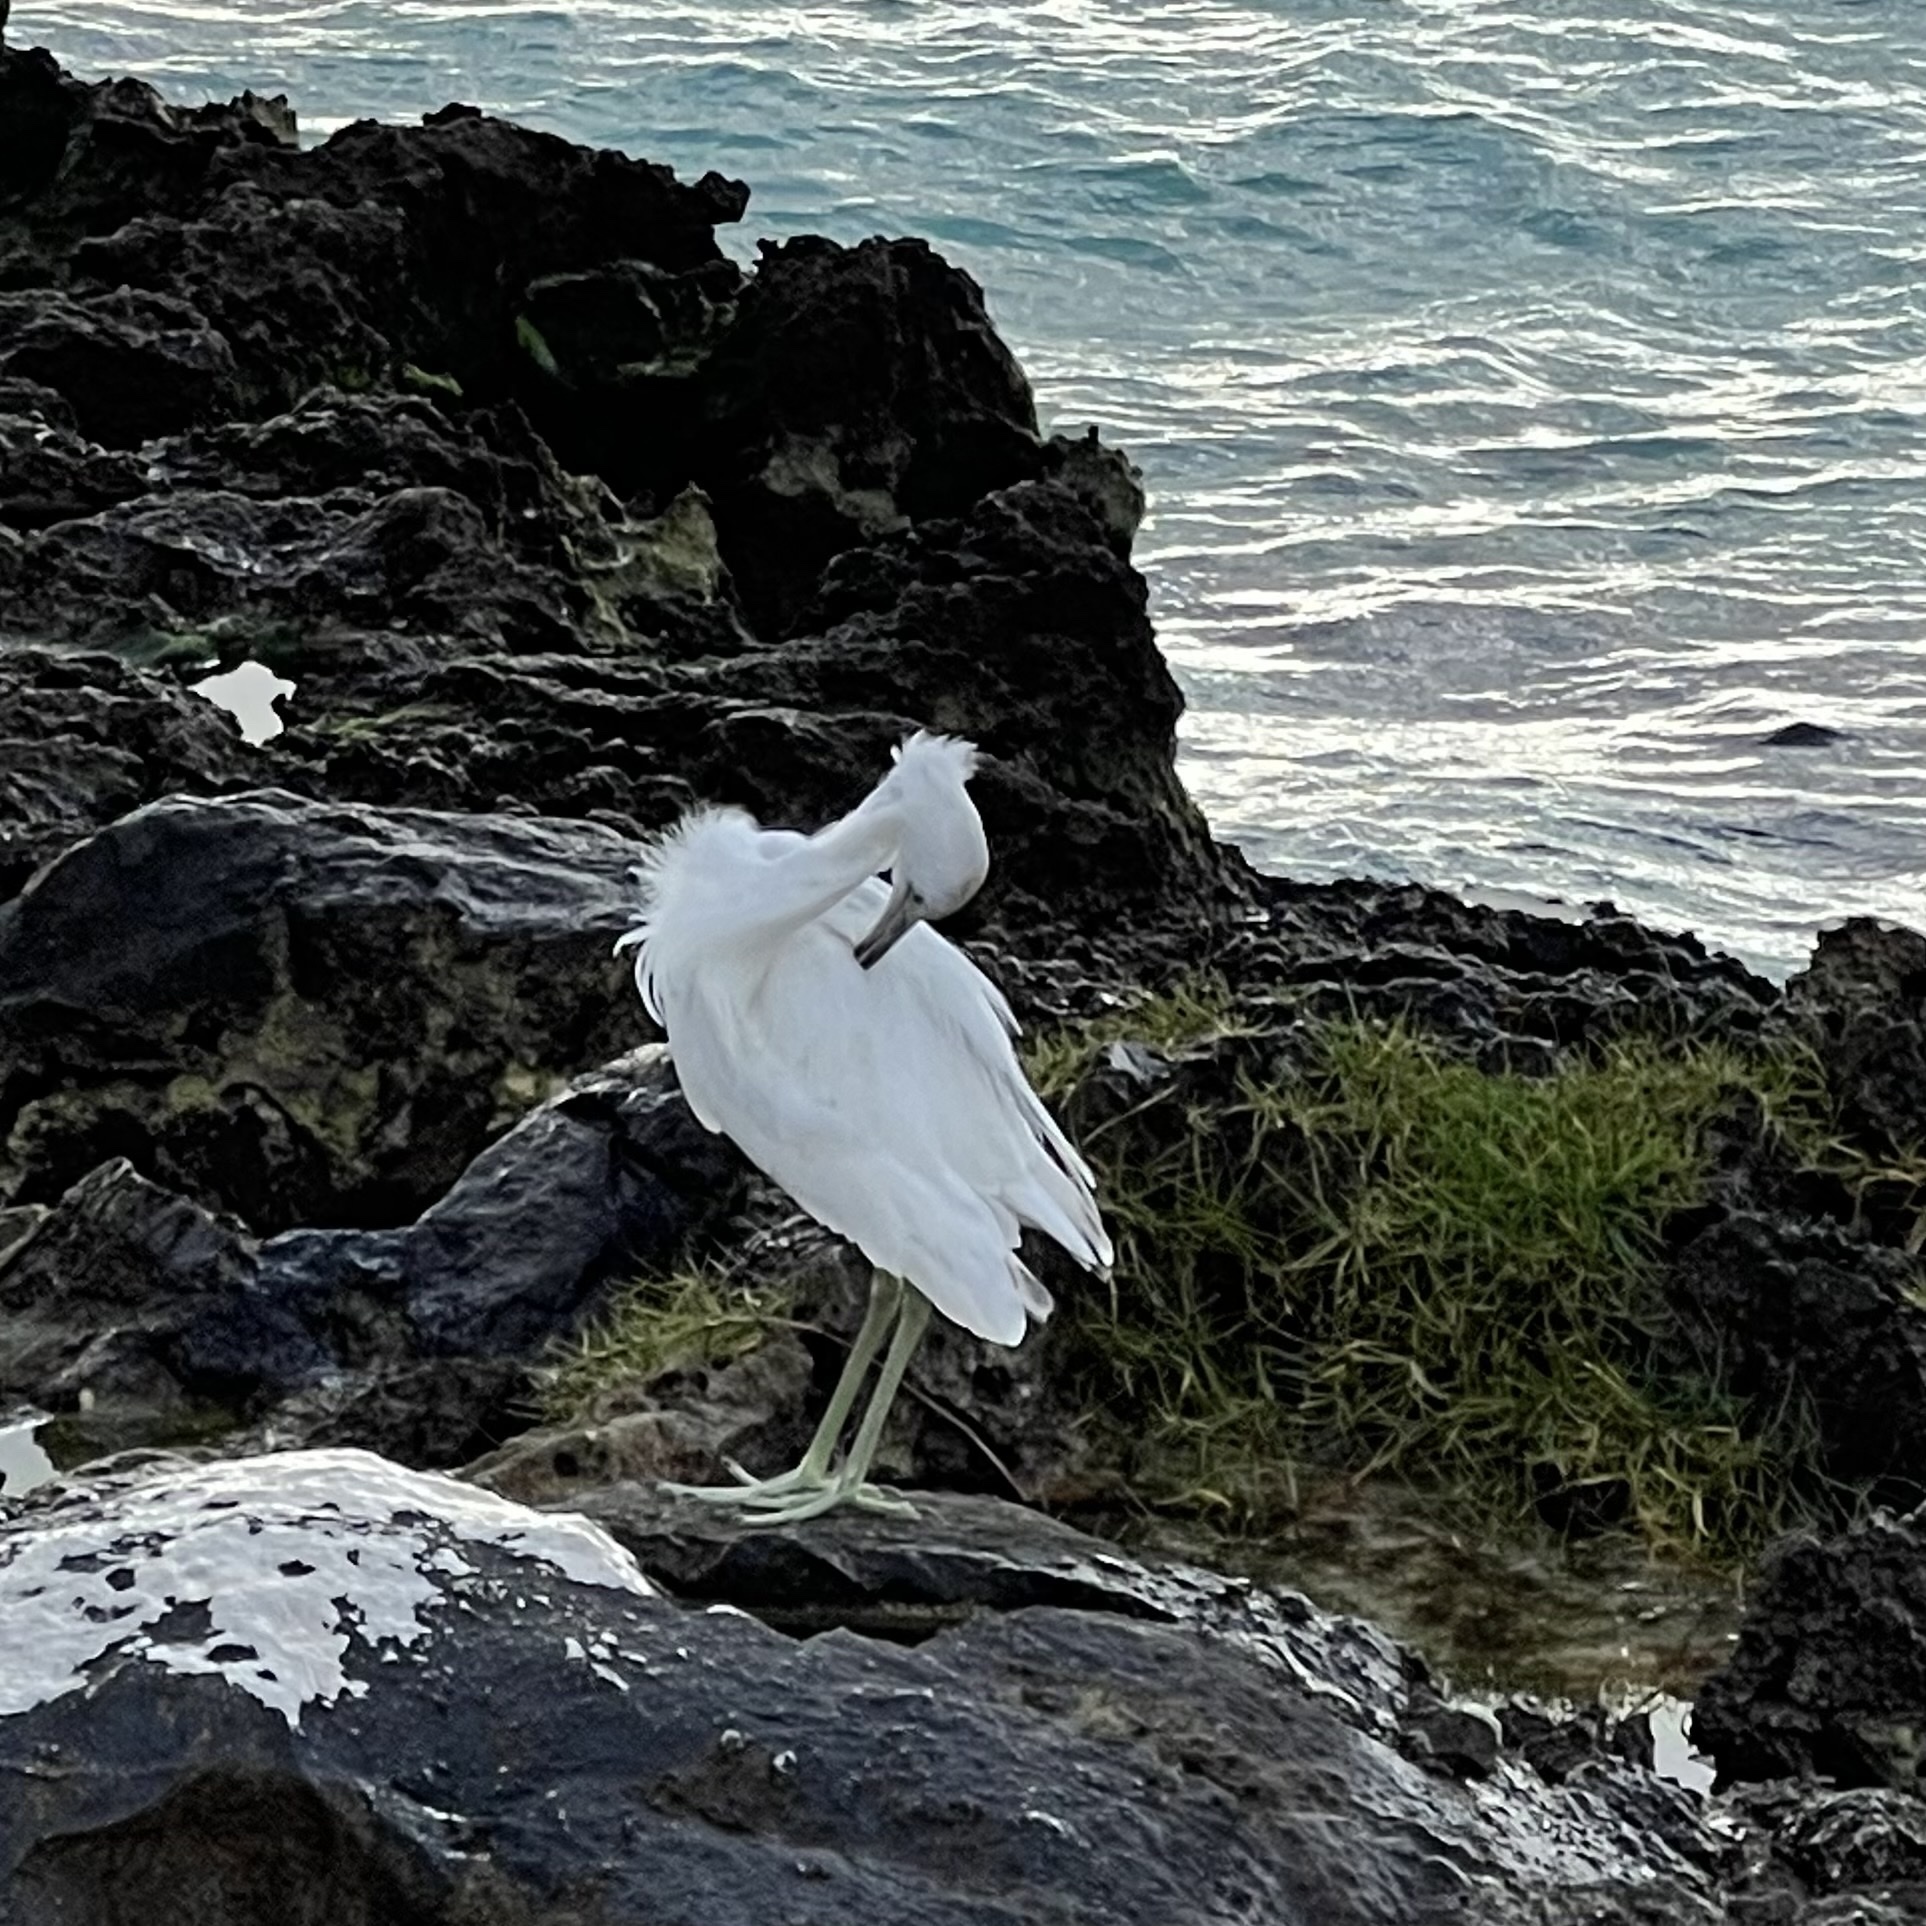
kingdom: Animalia
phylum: Chordata
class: Aves
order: Pelecaniformes
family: Ardeidae
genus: Egretta
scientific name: Egretta caerulea
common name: Little blue heron
